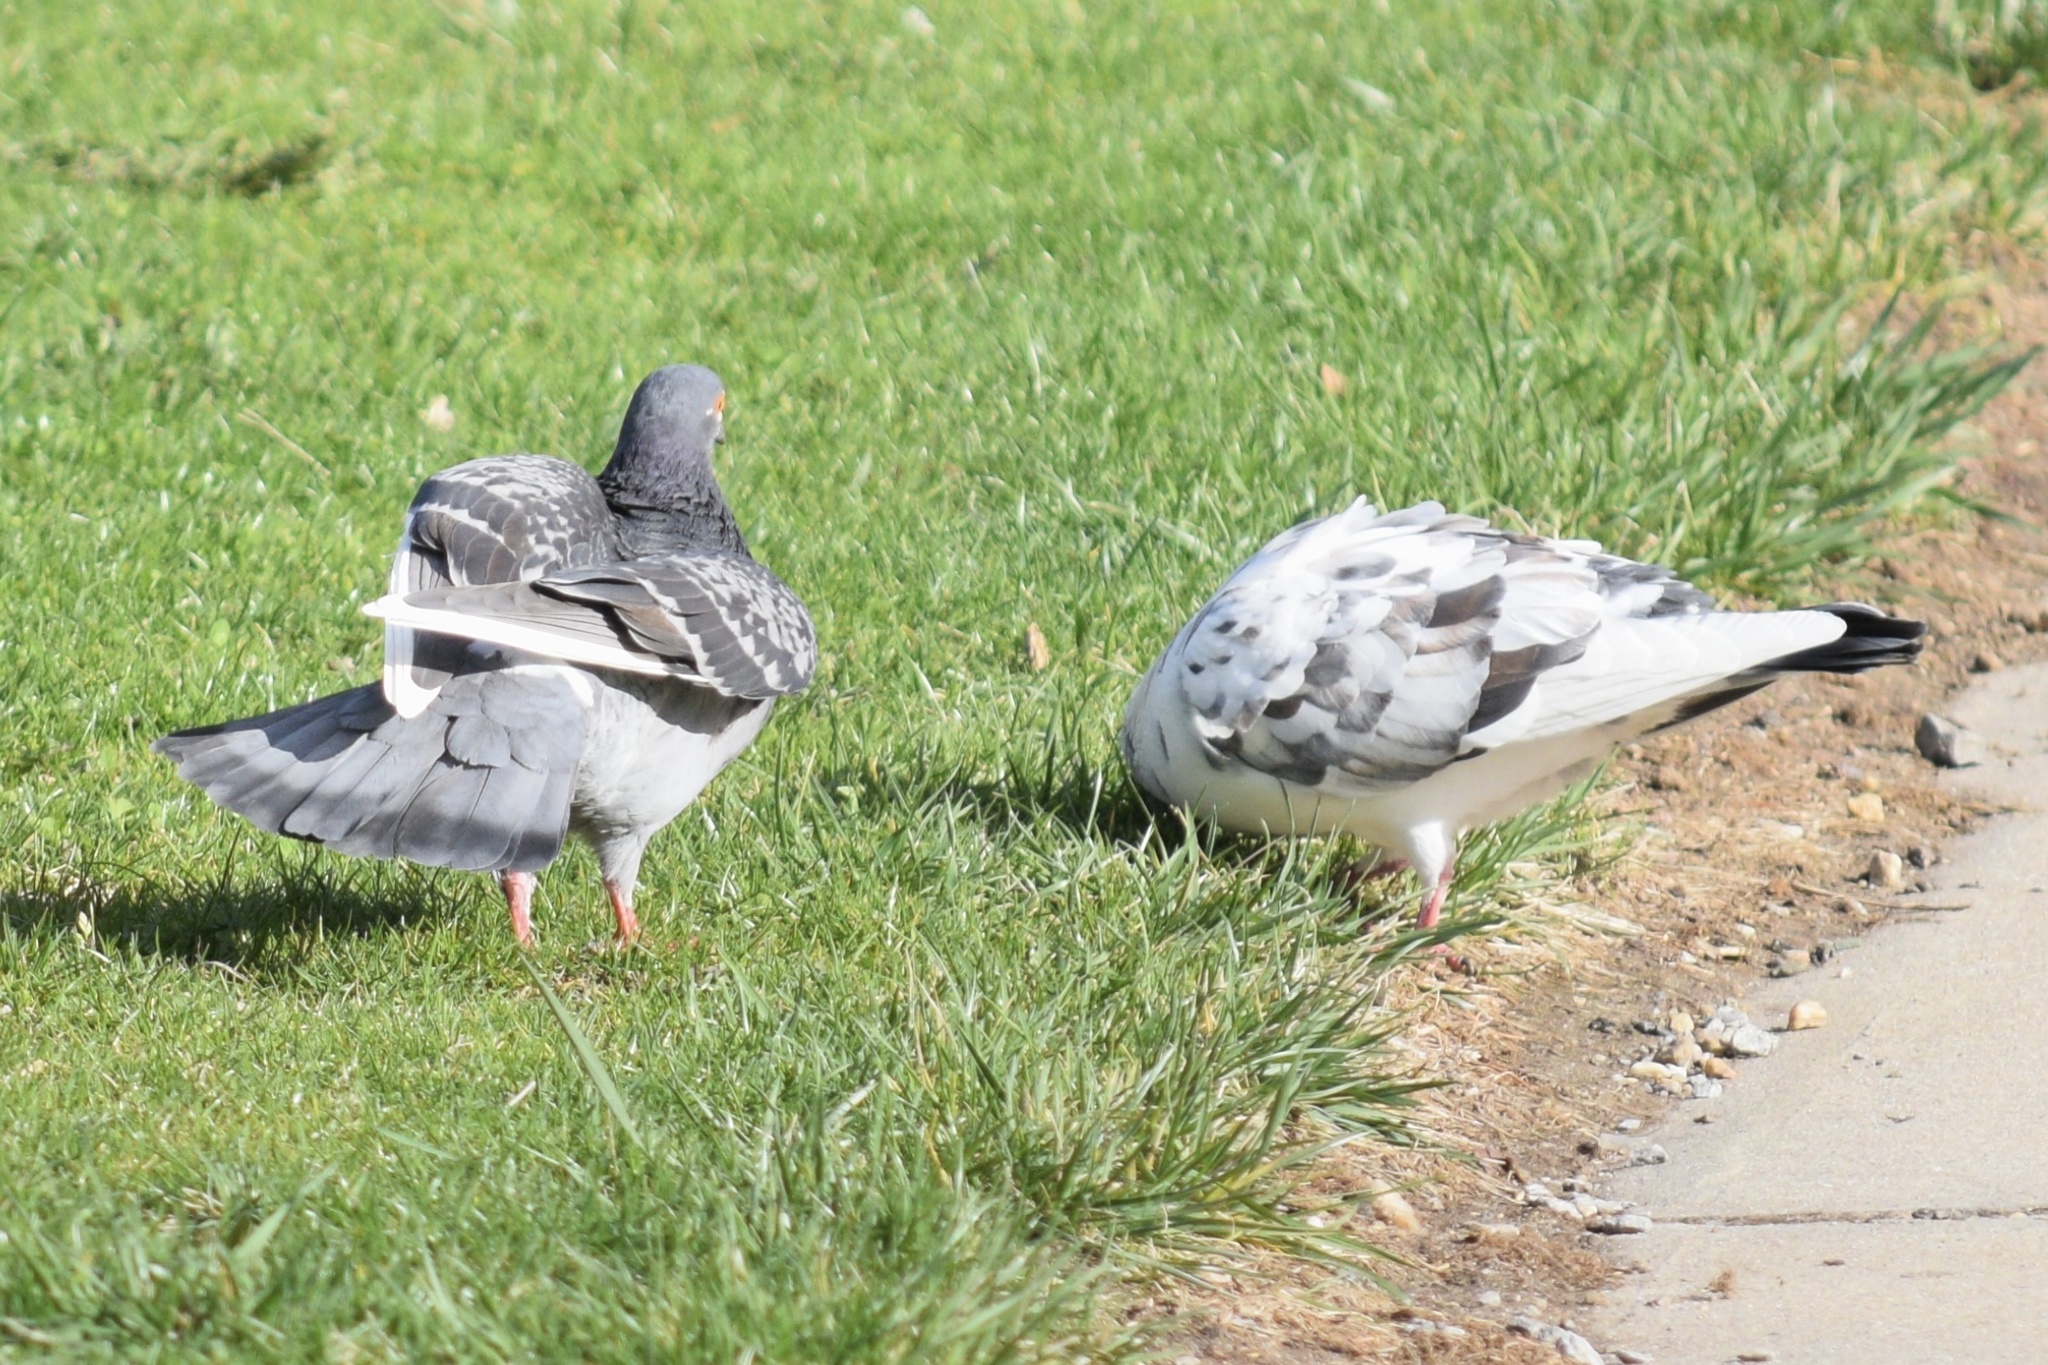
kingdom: Animalia
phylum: Chordata
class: Aves
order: Columbiformes
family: Columbidae
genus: Columba
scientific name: Columba livia
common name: Rock pigeon
